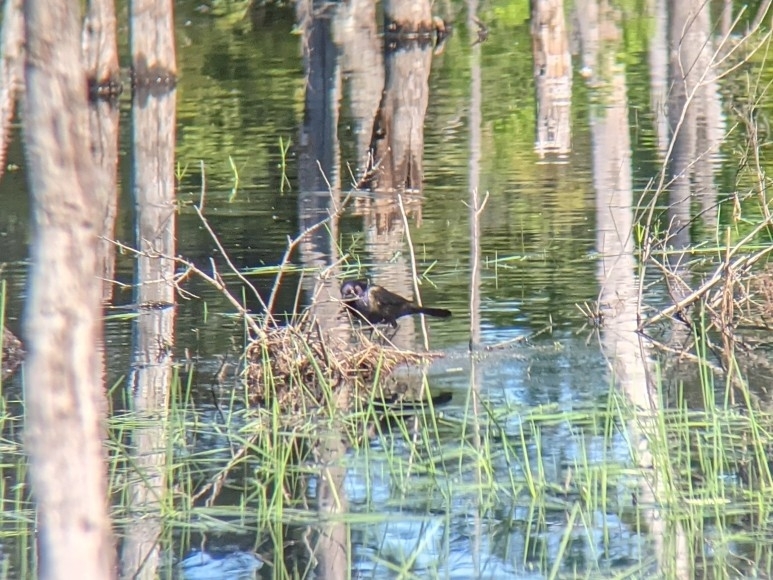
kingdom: Animalia
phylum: Chordata
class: Aves
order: Passeriformes
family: Icteridae
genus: Quiscalus
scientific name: Quiscalus quiscula
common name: Common grackle
